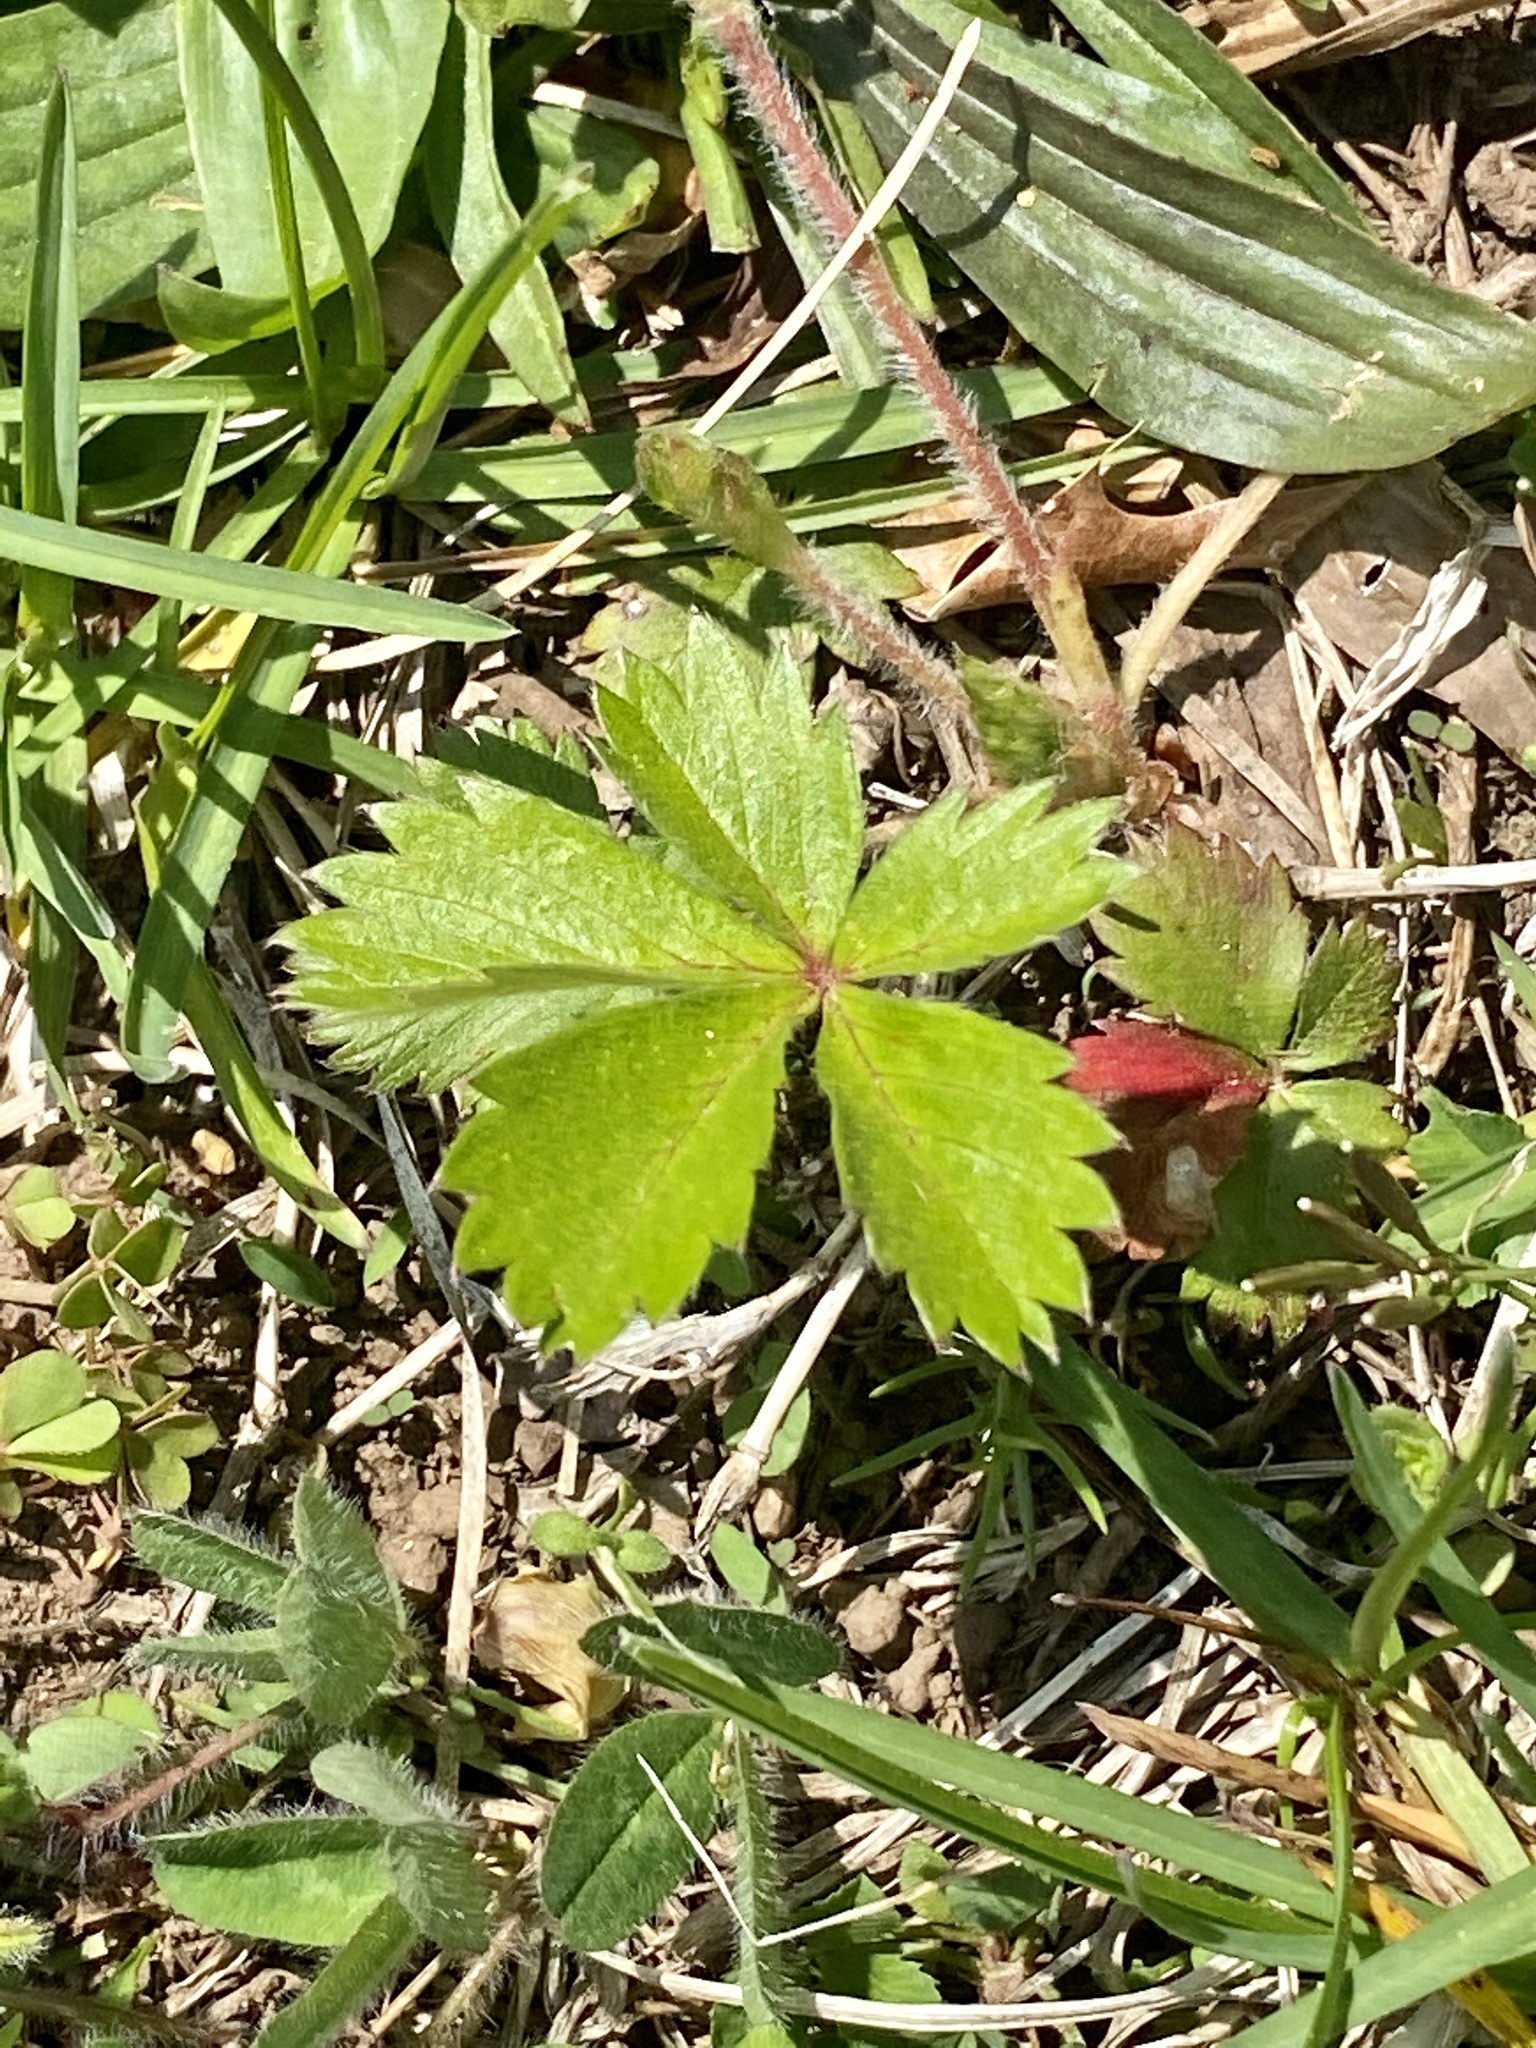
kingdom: Plantae
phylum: Tracheophyta
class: Magnoliopsida
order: Rosales
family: Rosaceae
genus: Potentilla
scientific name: Potentilla canadensis
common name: Canada cinquefoil
